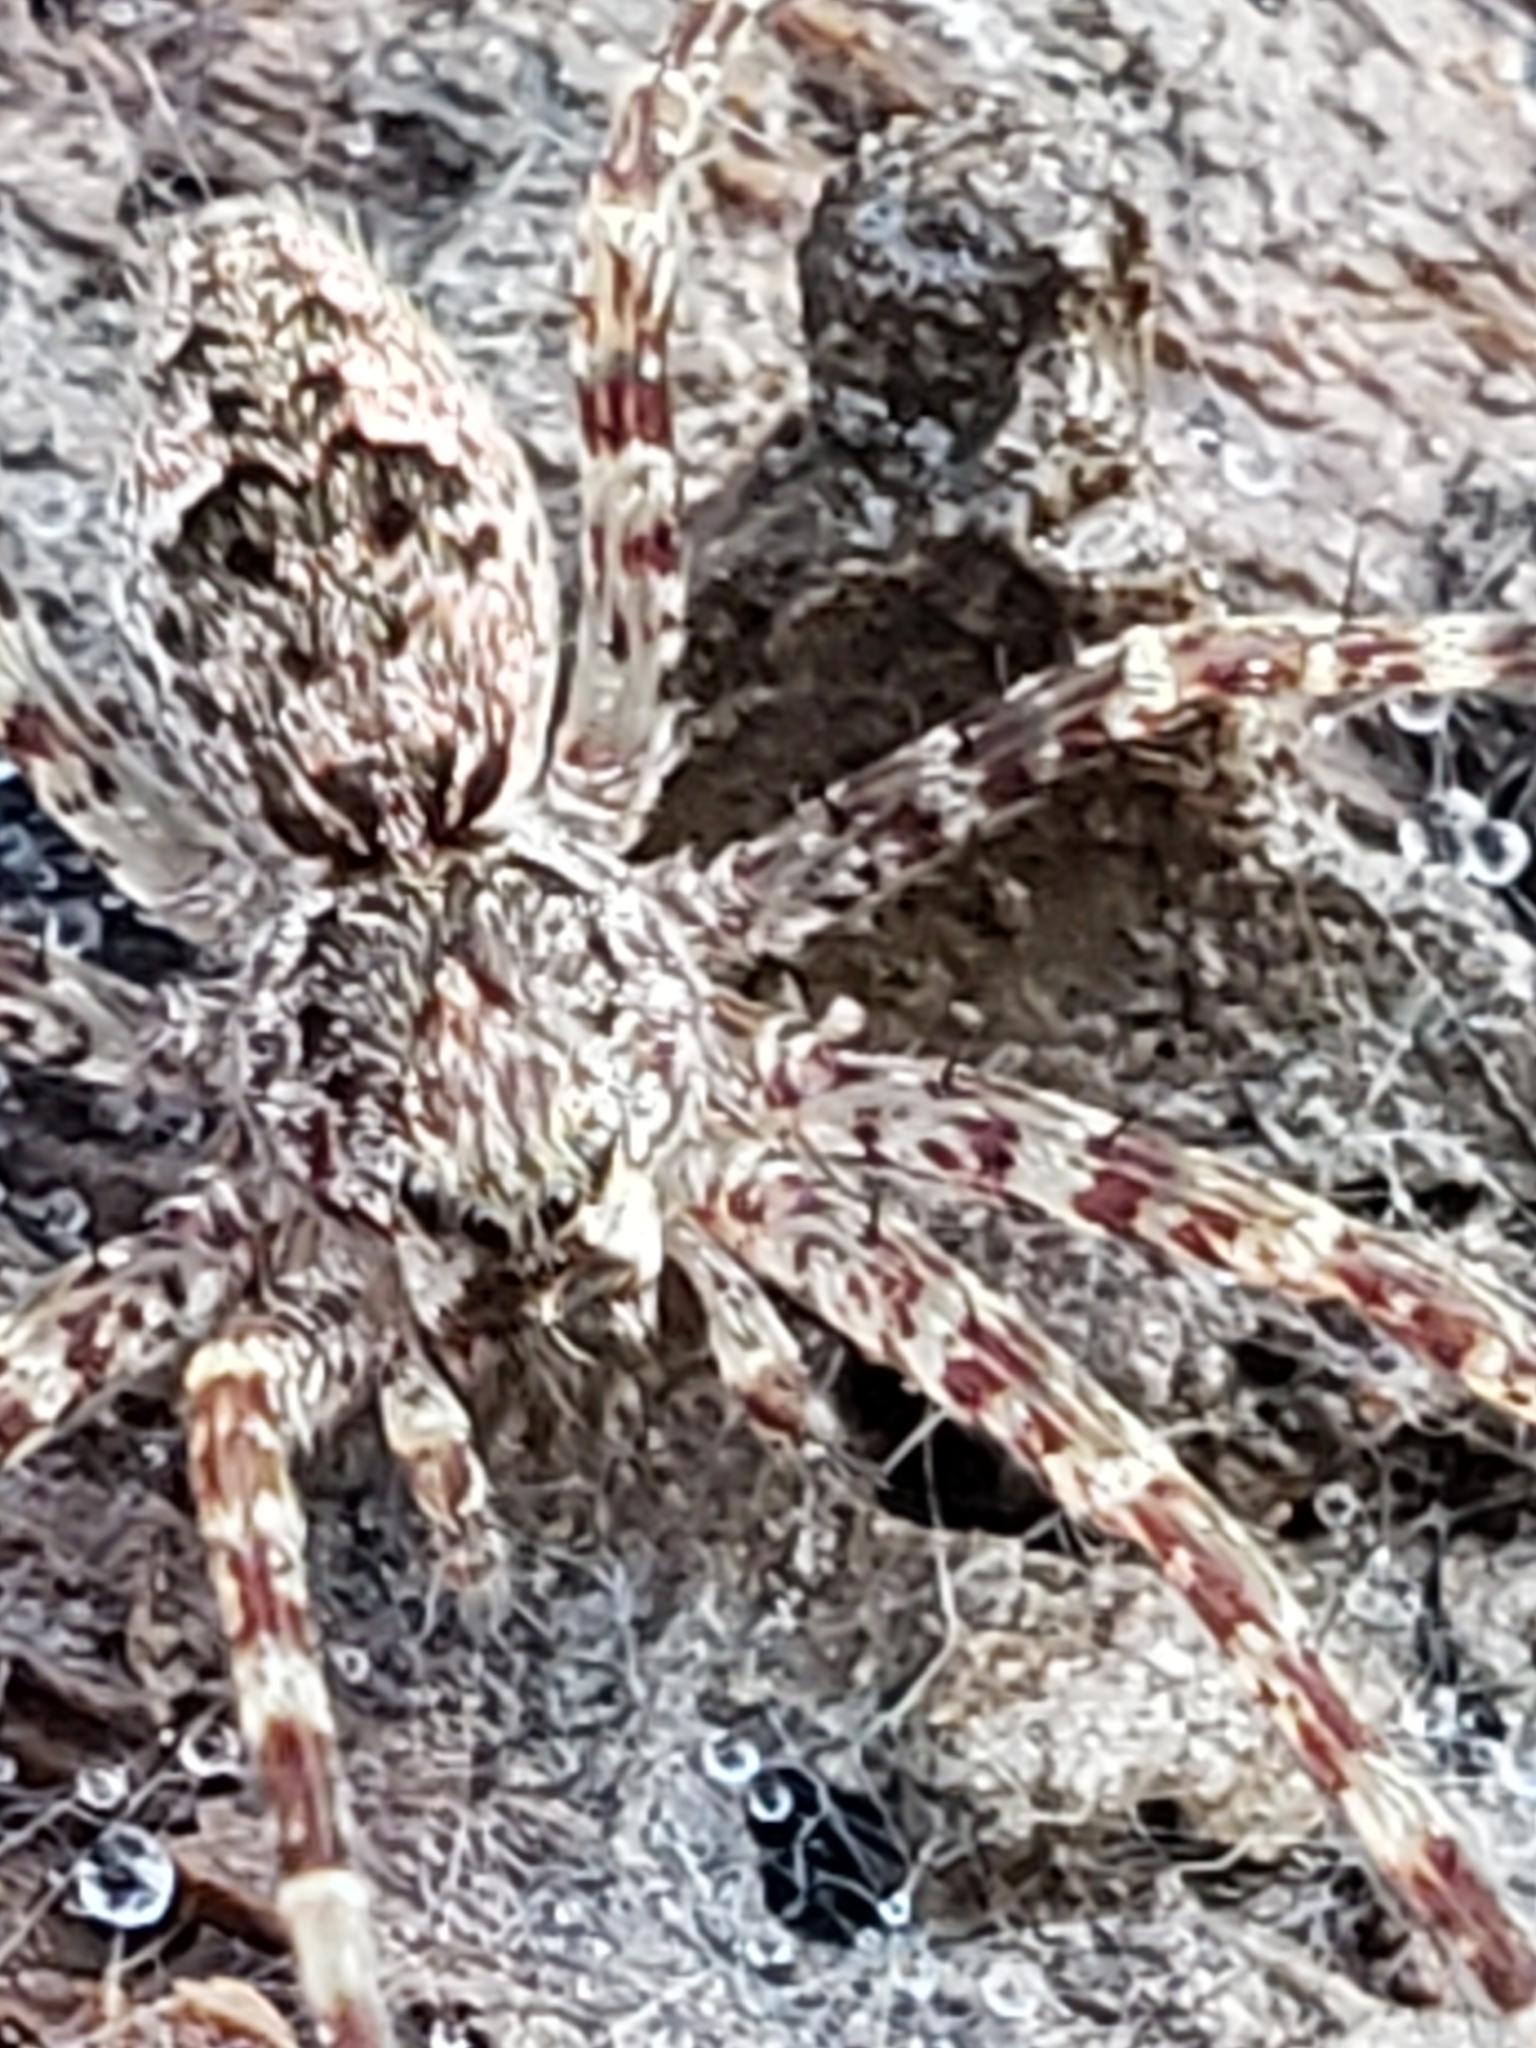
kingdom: Animalia
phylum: Arthropoda
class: Arachnida
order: Araneae
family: Pisauridae
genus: Dolomedes
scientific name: Dolomedes tenebrosus
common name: Dark fishing spider
